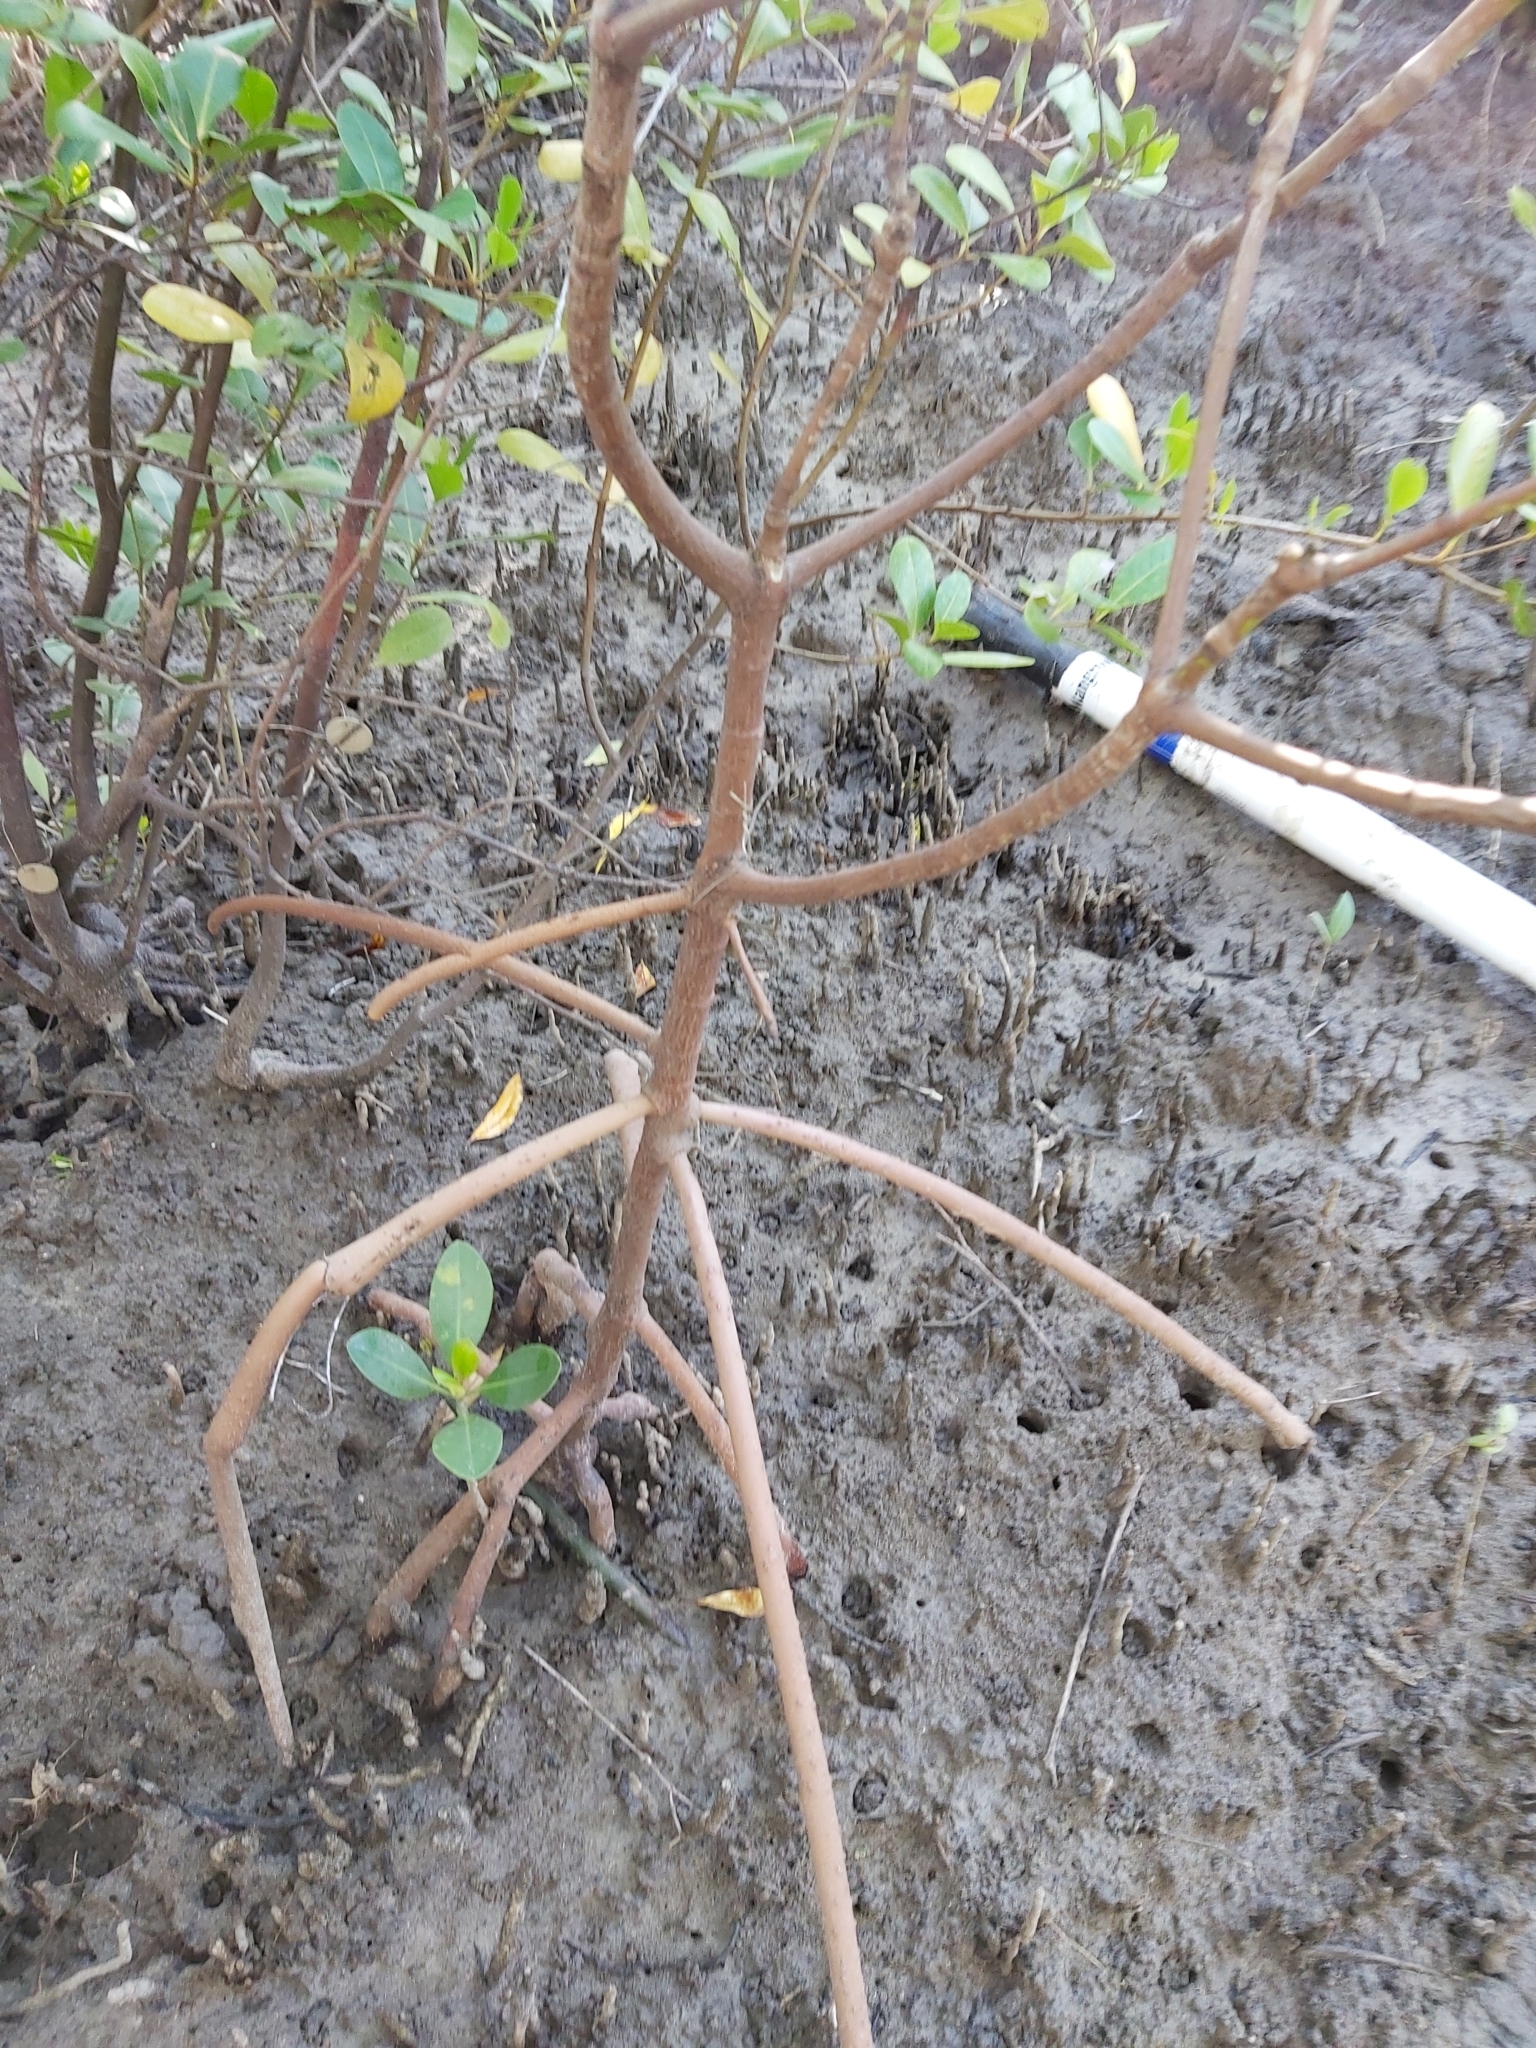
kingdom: Plantae
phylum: Tracheophyta
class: Magnoliopsida
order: Malpighiales
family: Rhizophoraceae
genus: Rhizophora
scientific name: Rhizophora stylosa
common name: Red mangrove
